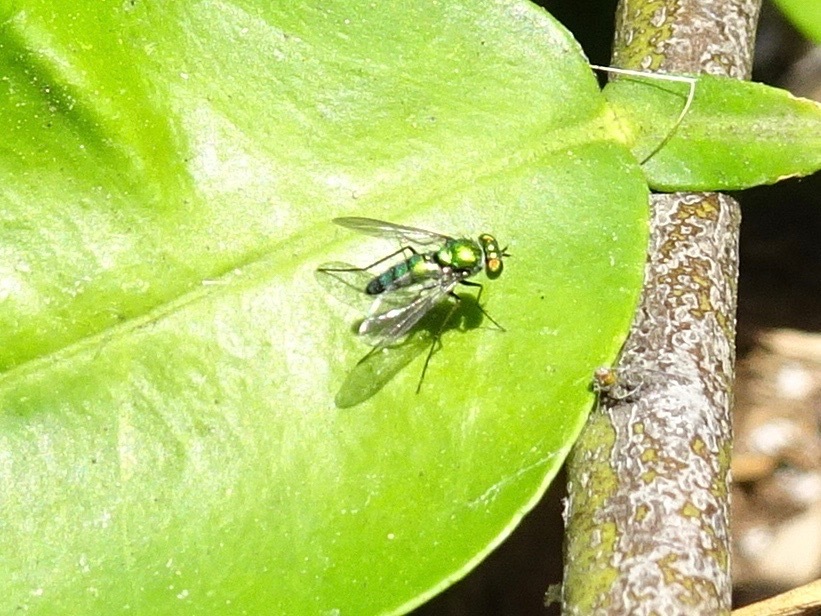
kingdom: Animalia
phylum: Arthropoda
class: Insecta
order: Diptera
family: Dolichopodidae
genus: Condylostylus
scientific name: Condylostylus longicornis
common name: Long-legged fly
